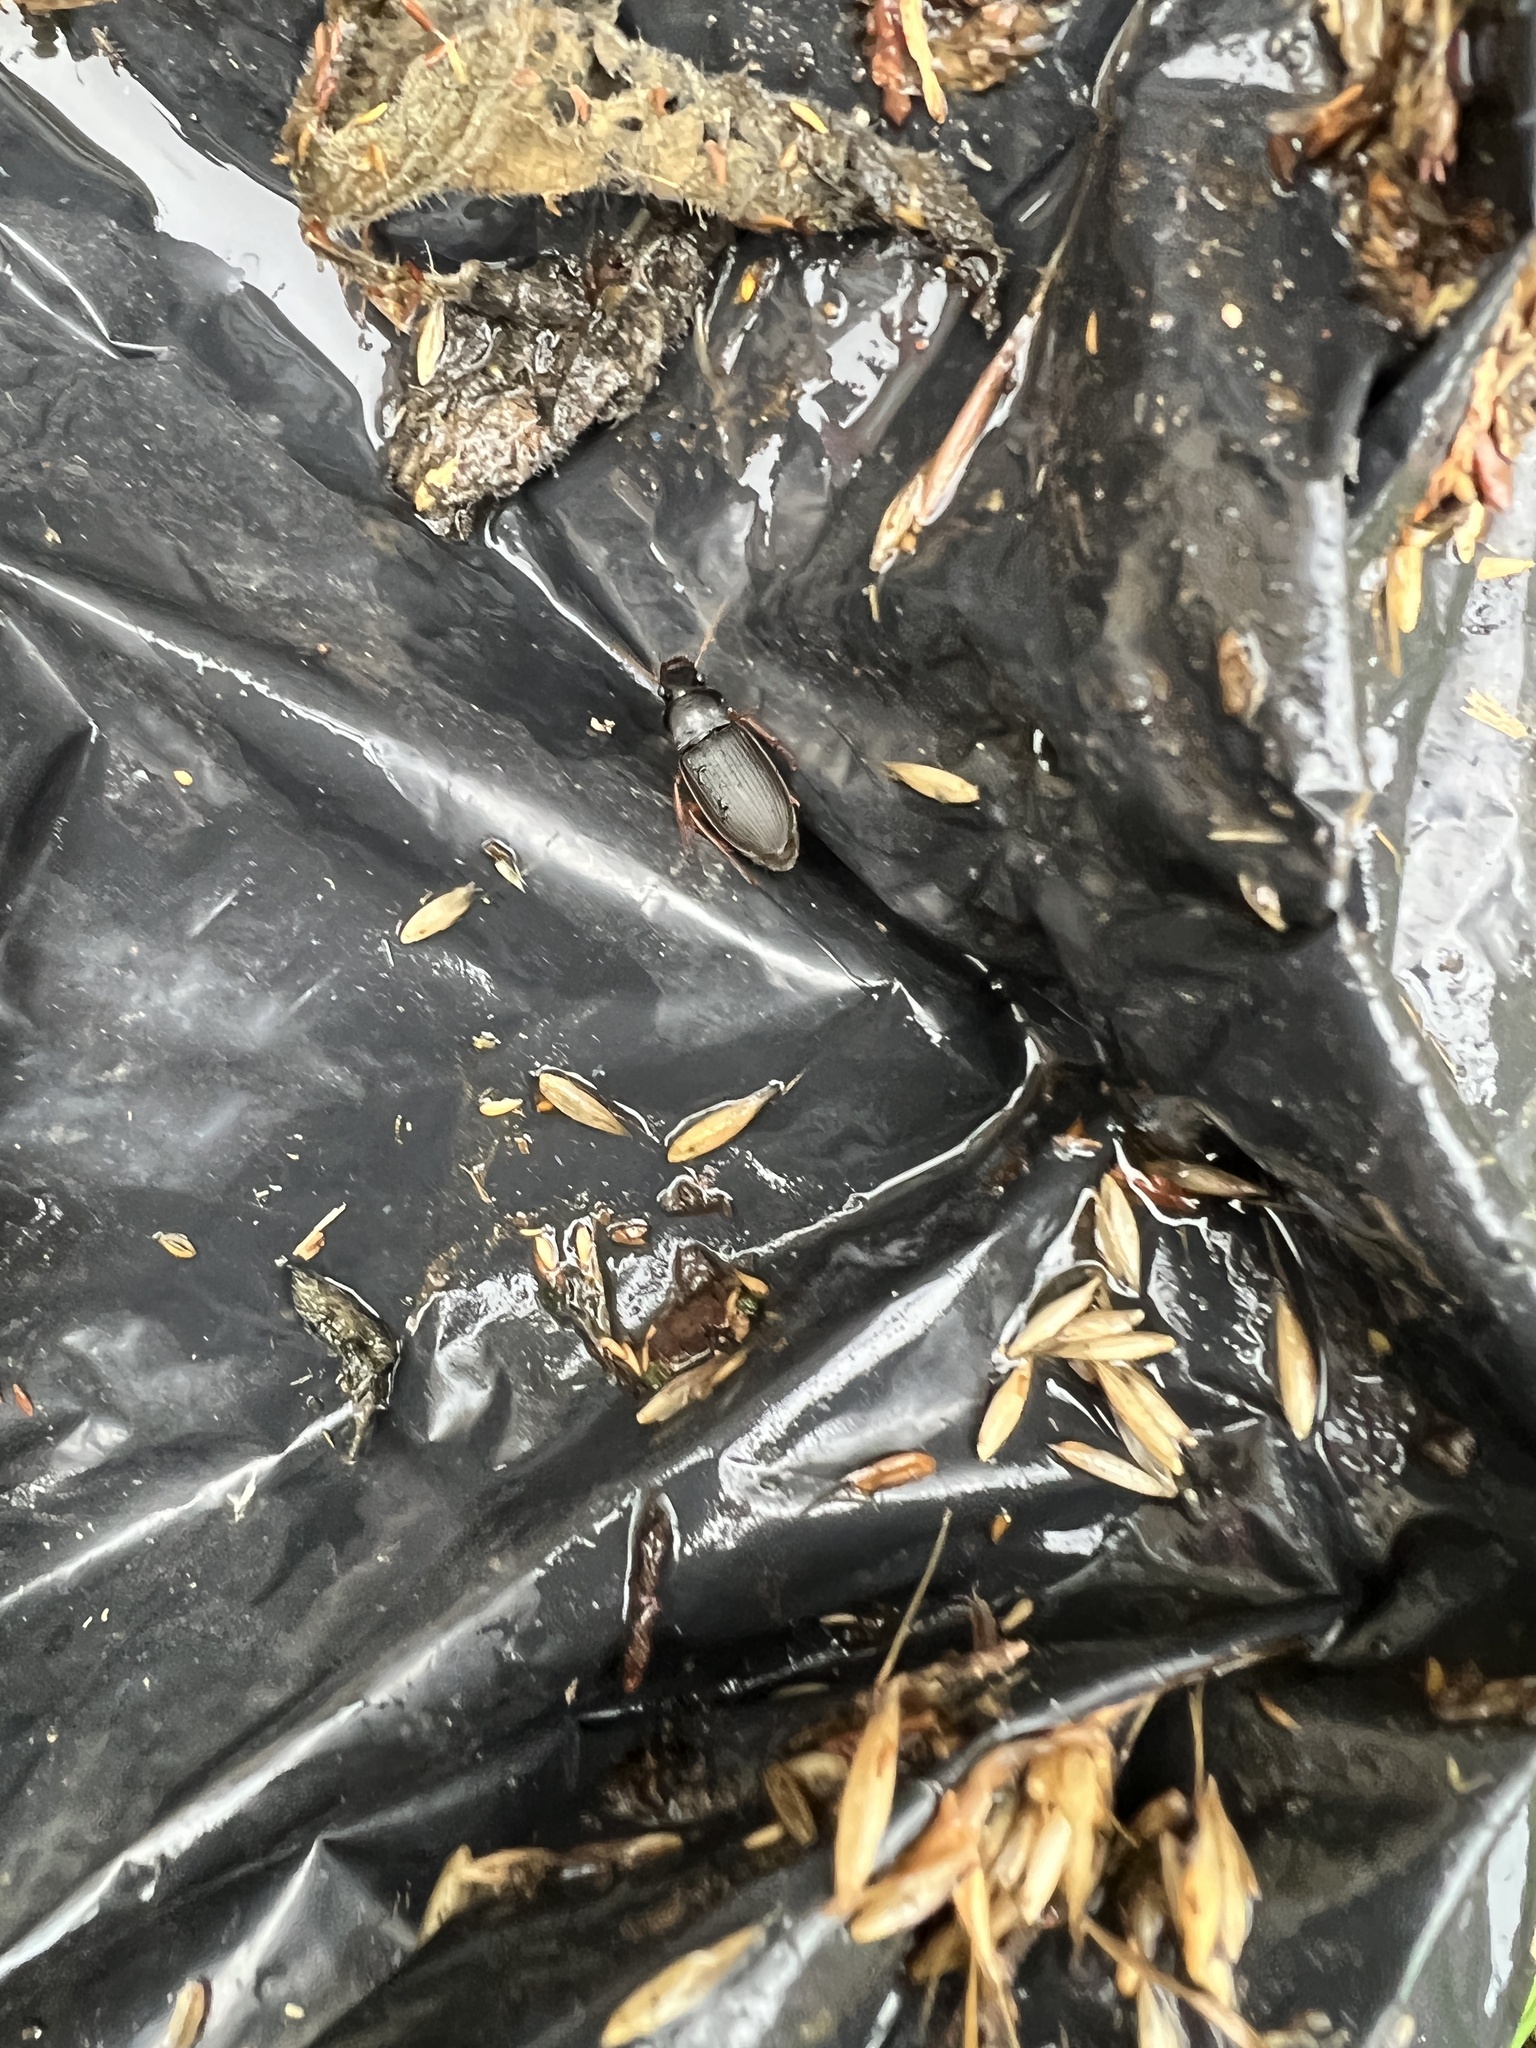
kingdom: Animalia
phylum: Arthropoda
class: Insecta
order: Coleoptera
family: Carabidae
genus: Harpalus
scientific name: Harpalus rufipes
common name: Strawberry harp ground beetle
